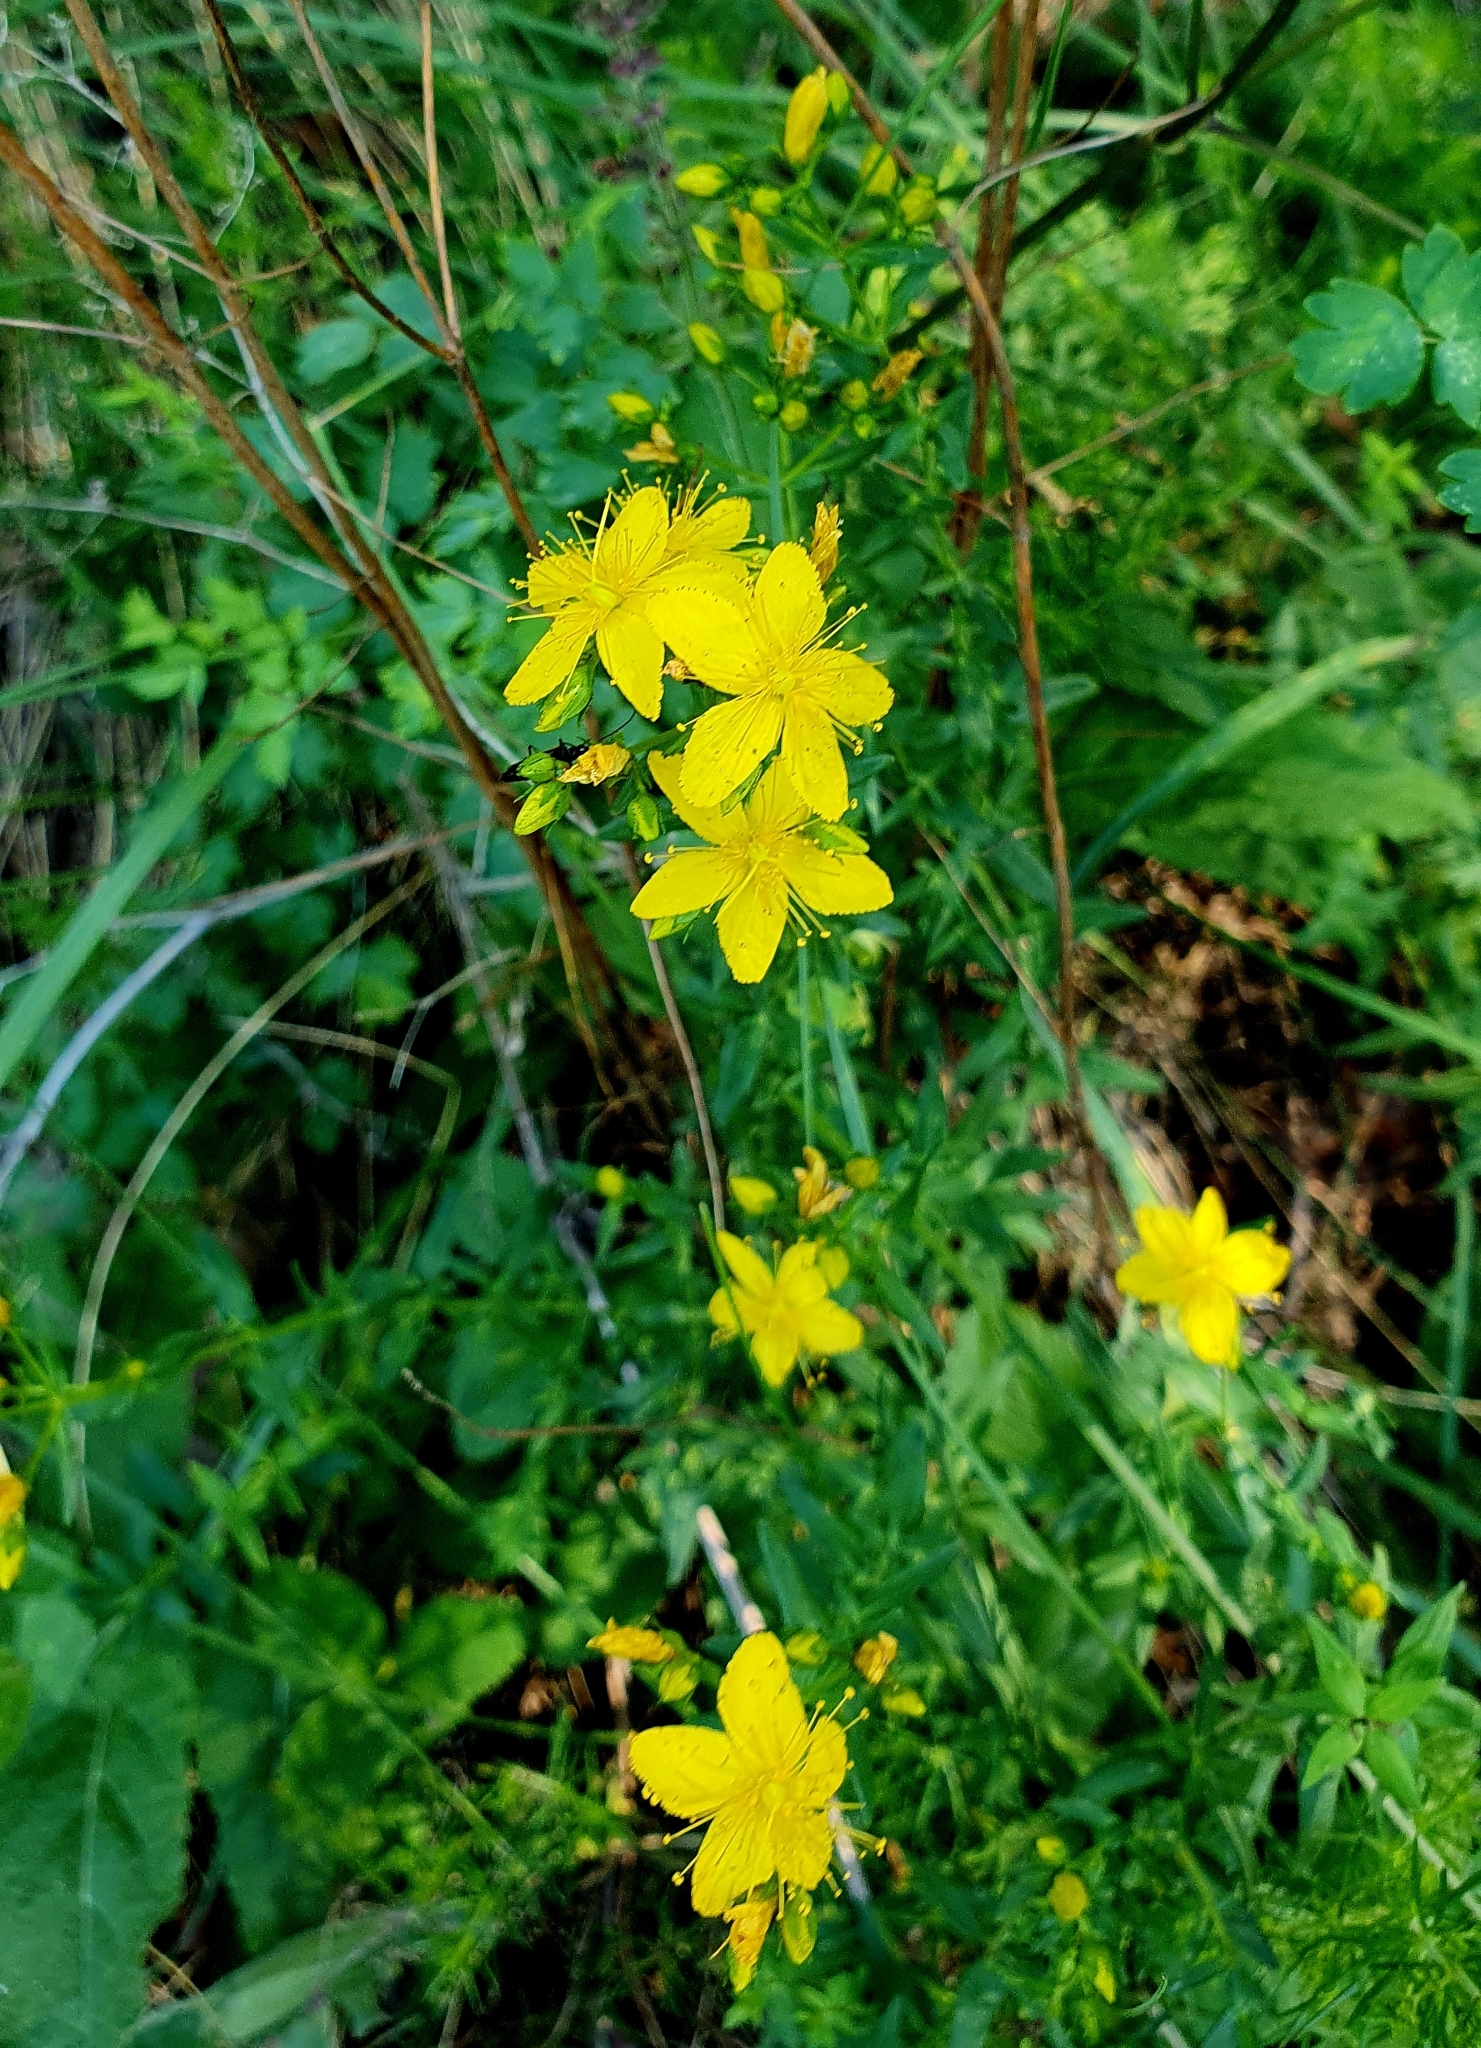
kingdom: Plantae
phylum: Tracheophyta
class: Magnoliopsida
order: Malpighiales
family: Hypericaceae
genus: Hypericum
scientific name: Hypericum elegans
